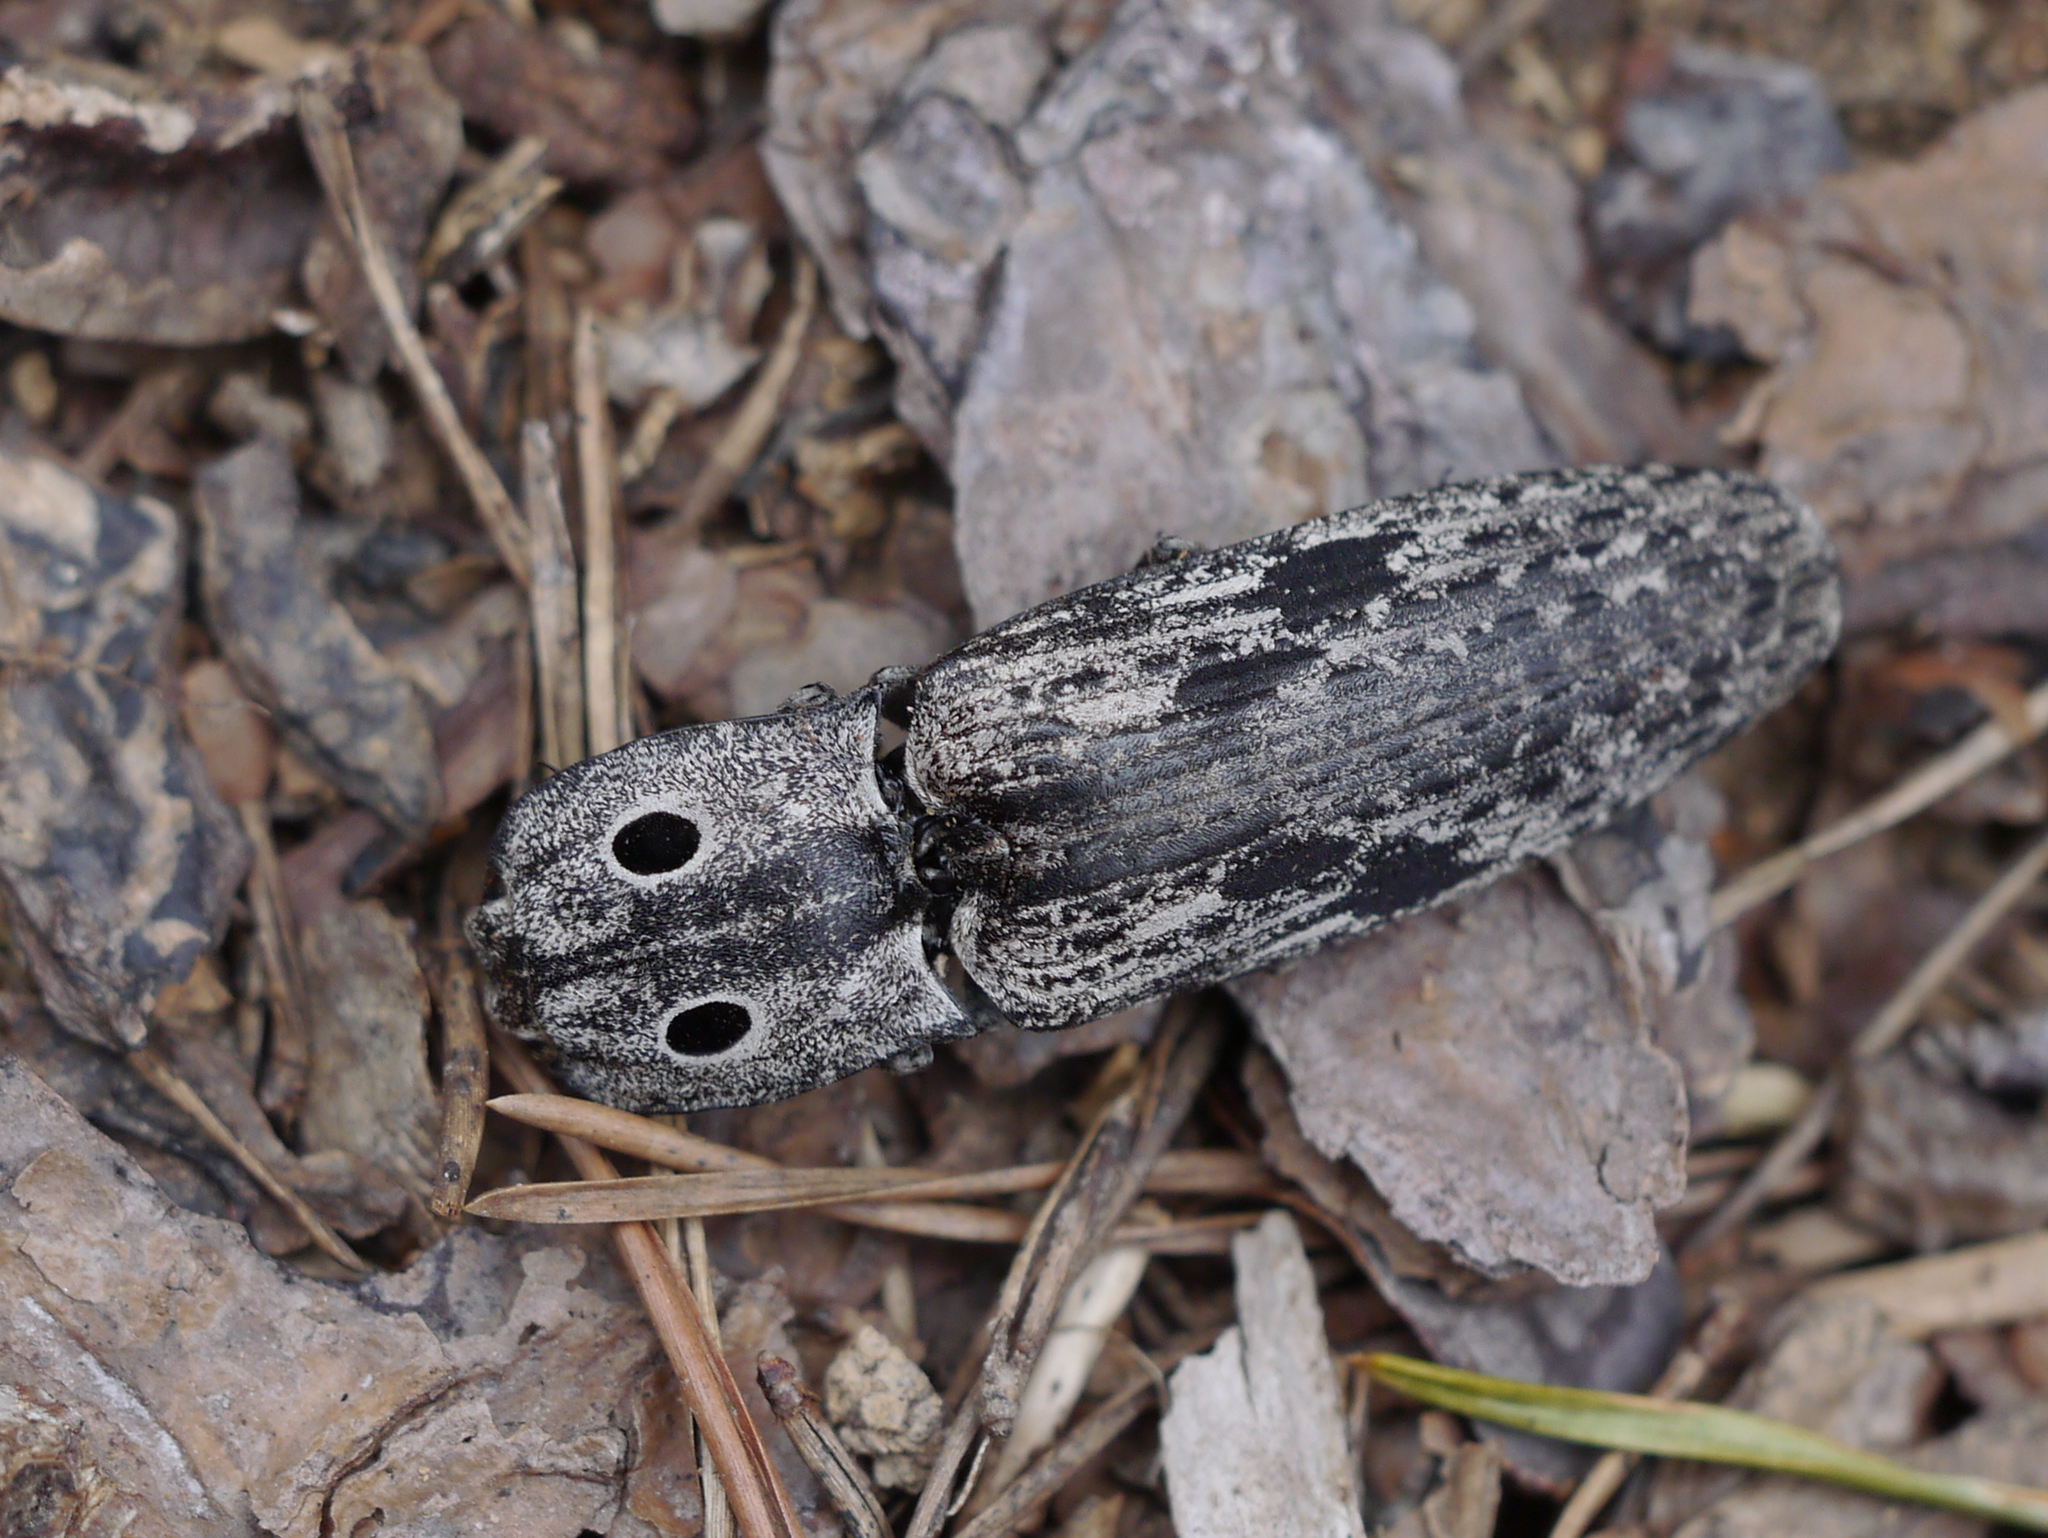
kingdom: Animalia
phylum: Arthropoda
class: Insecta
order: Coleoptera
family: Elateridae
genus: Alaus
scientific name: Alaus myops
